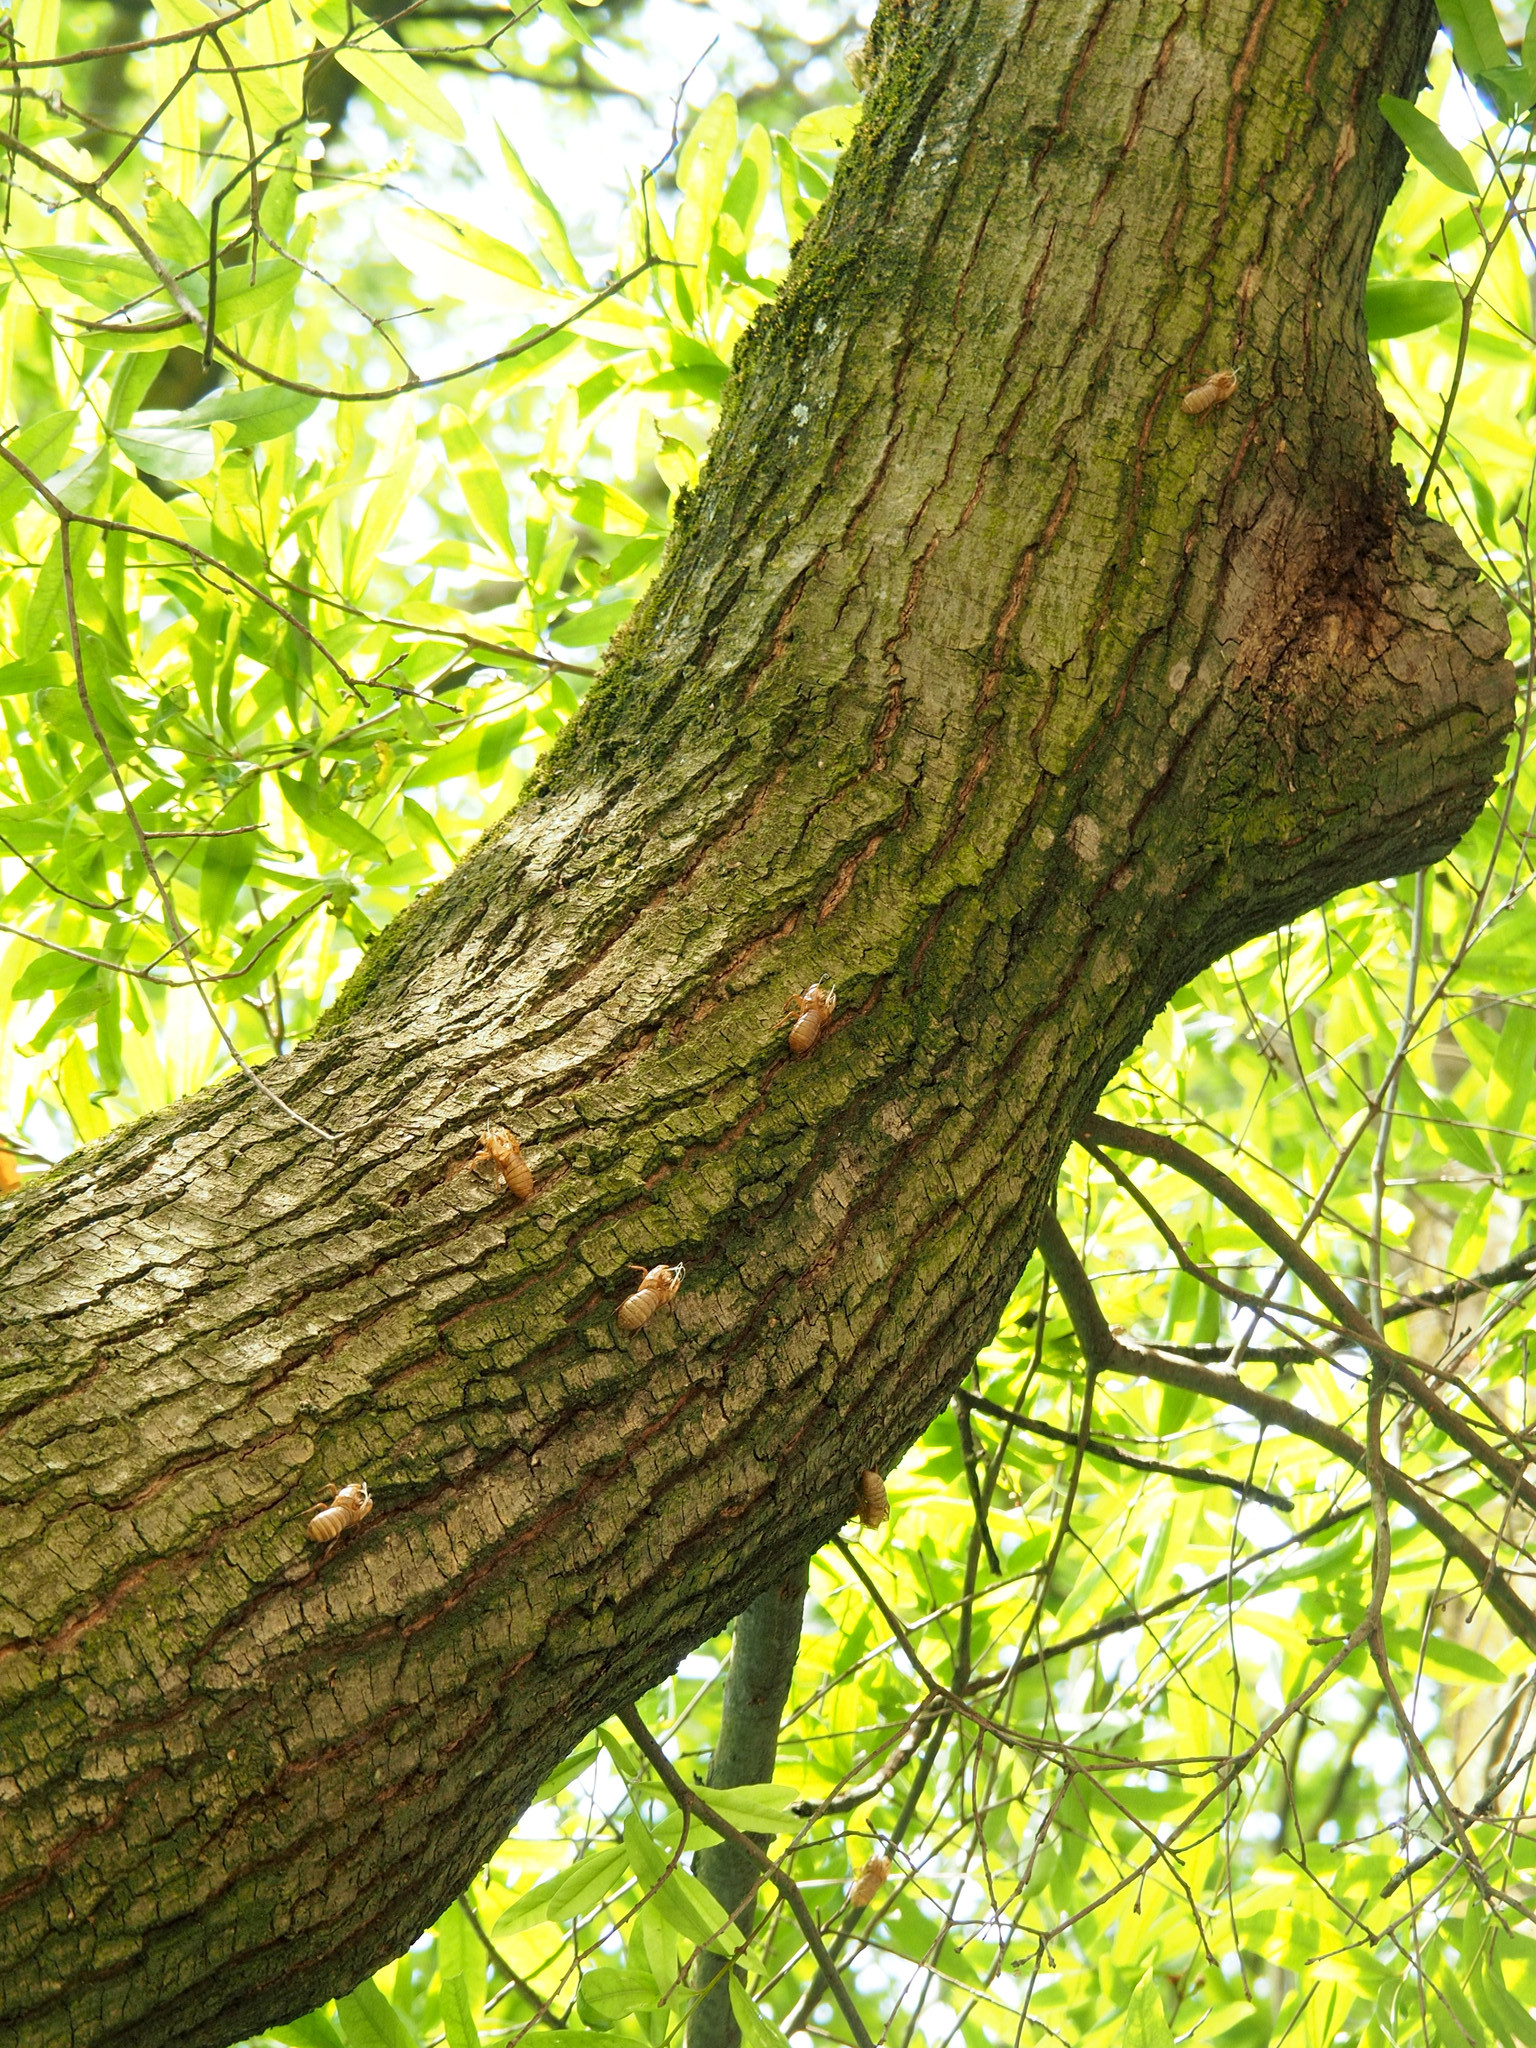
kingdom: Animalia
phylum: Arthropoda
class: Insecta
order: Hemiptera
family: Cicadidae
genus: Magicicada
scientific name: Magicicada
